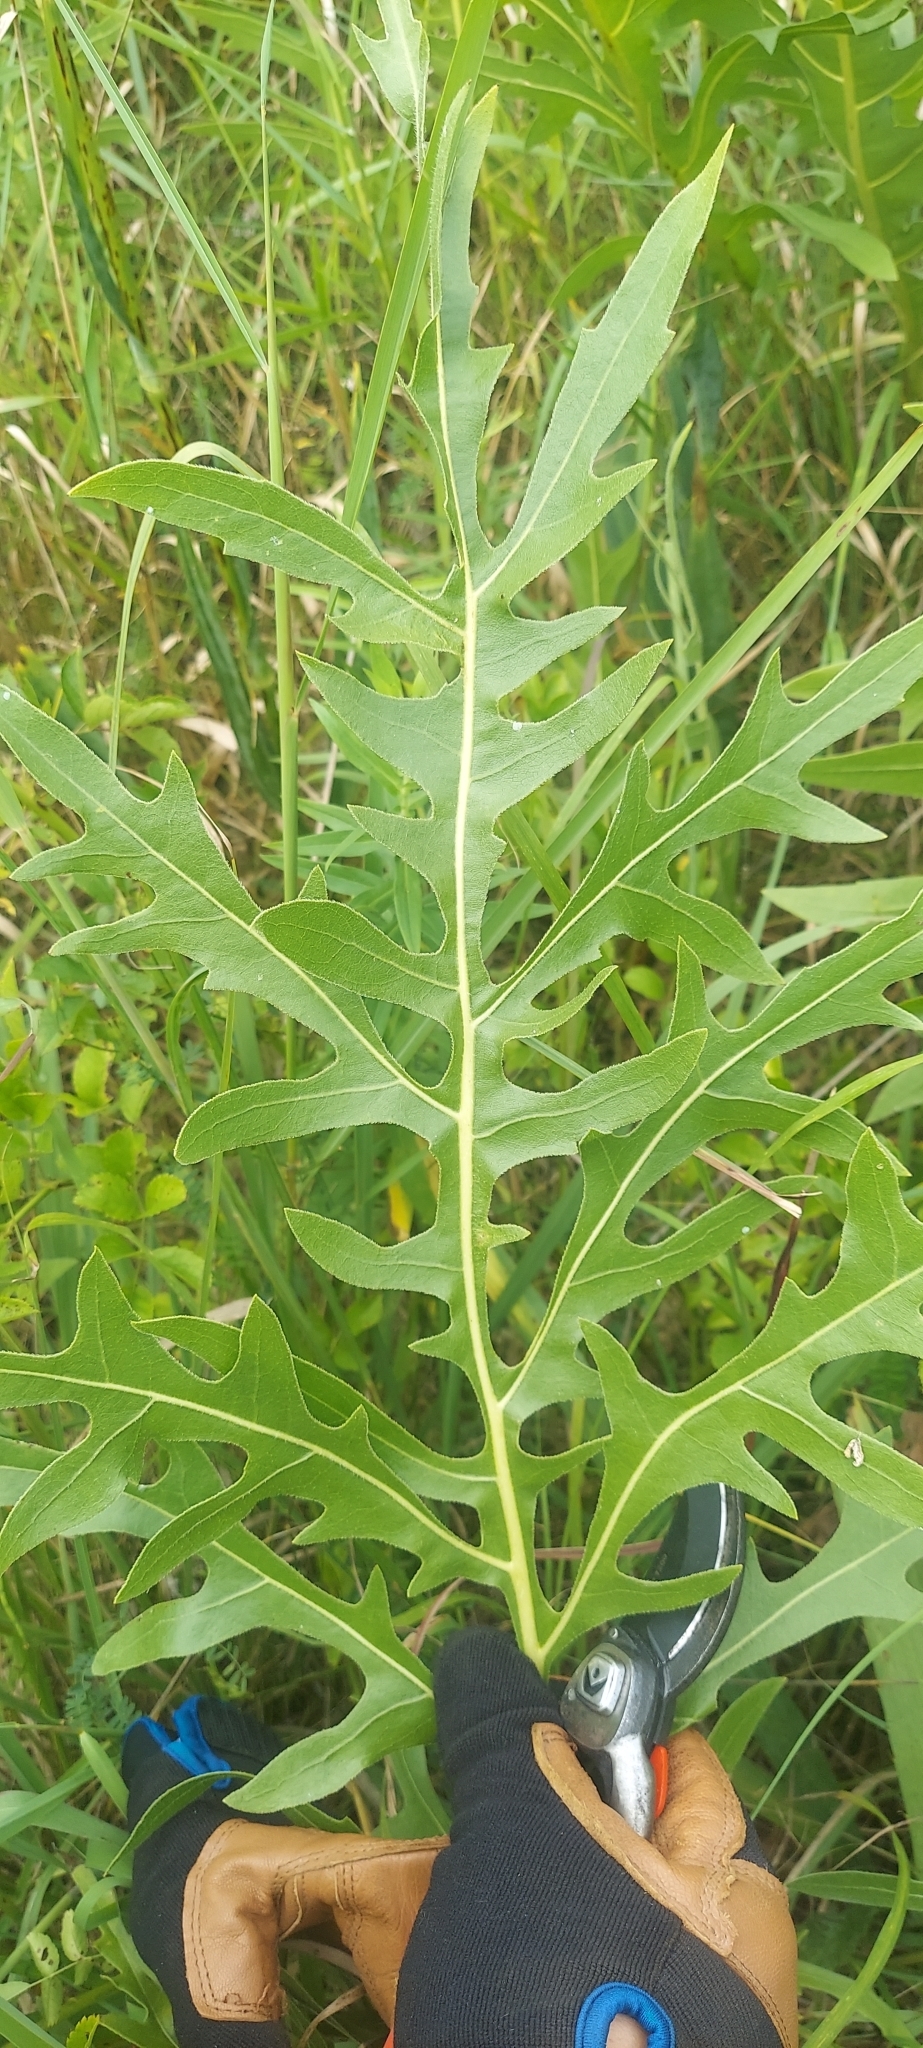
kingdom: Plantae
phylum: Tracheophyta
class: Magnoliopsida
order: Asterales
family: Asteraceae
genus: Silphium
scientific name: Silphium laciniatum
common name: Polarplant
